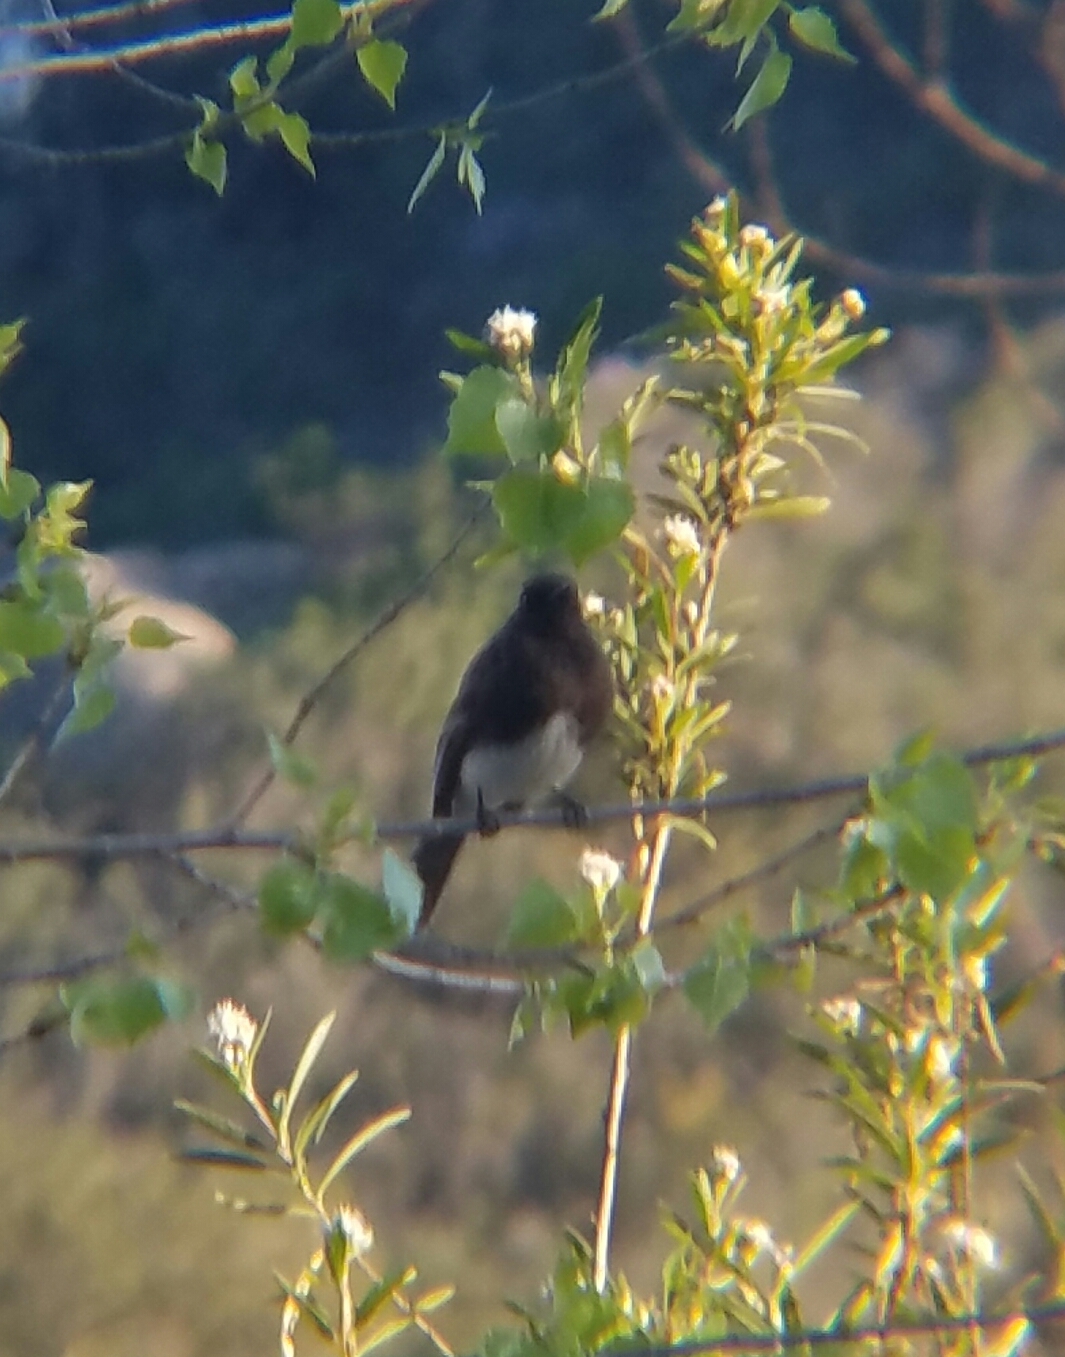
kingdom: Animalia
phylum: Chordata
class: Aves
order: Passeriformes
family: Tyrannidae
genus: Sayornis
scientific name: Sayornis nigricans
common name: Black phoebe
